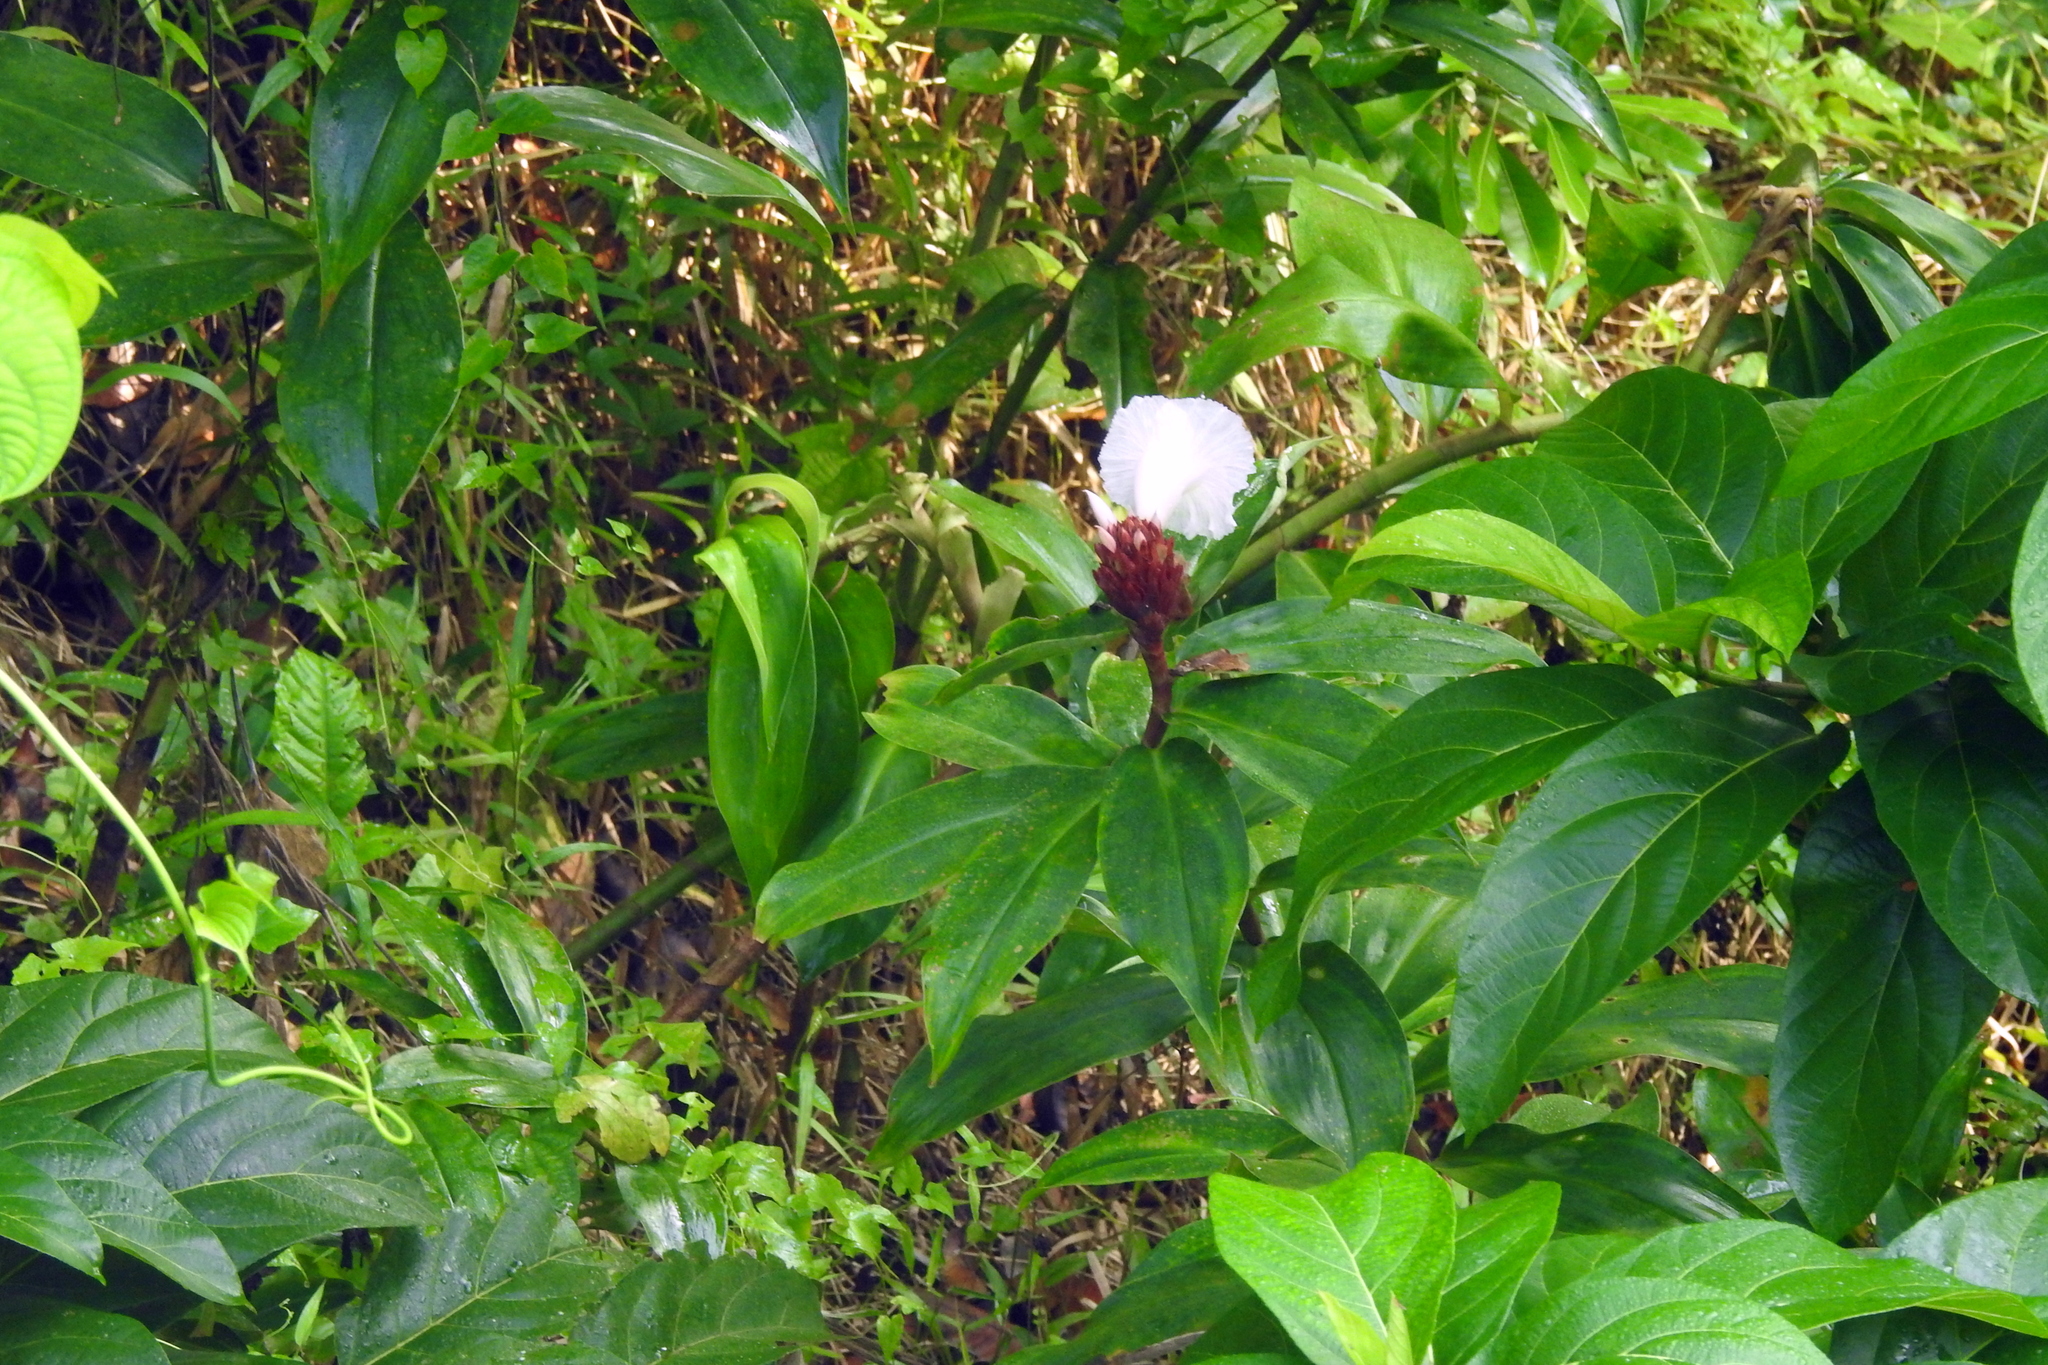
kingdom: Plantae
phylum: Tracheophyta
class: Liliopsida
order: Zingiberales
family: Costaceae
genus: Hellenia
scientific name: Hellenia speciosa
